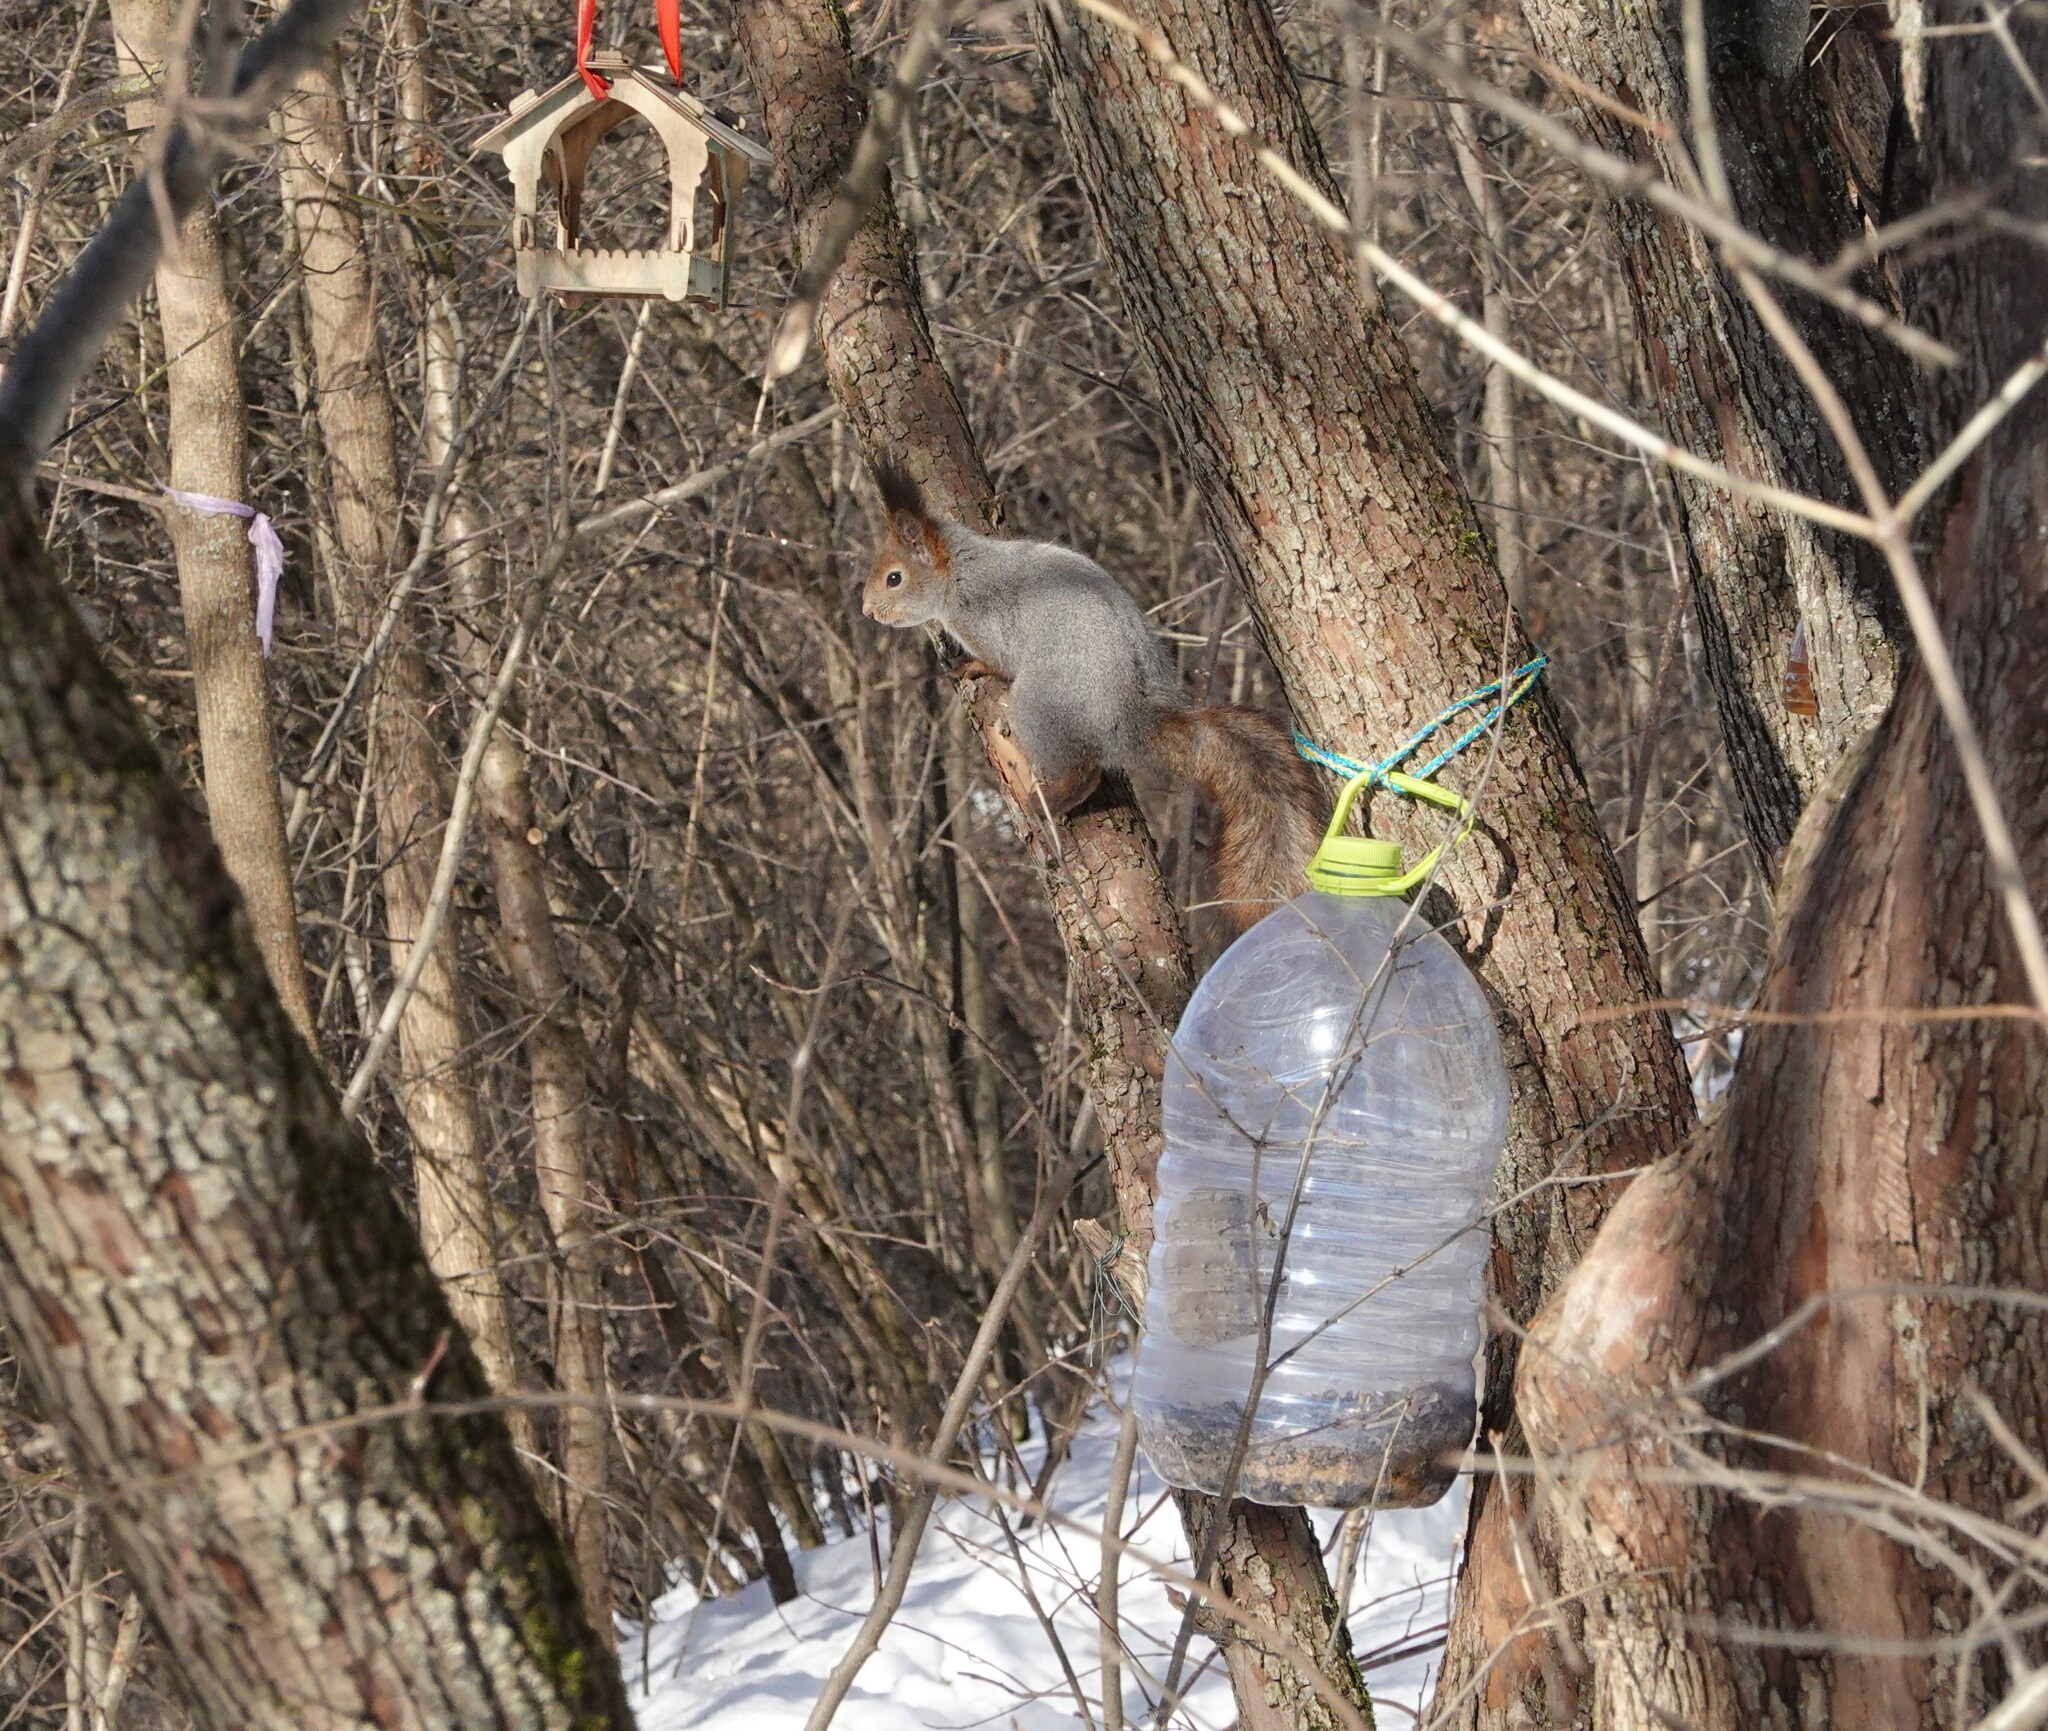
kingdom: Animalia
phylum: Chordata
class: Mammalia
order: Rodentia
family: Sciuridae
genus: Sciurus
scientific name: Sciurus vulgaris
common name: Eurasian red squirrel
